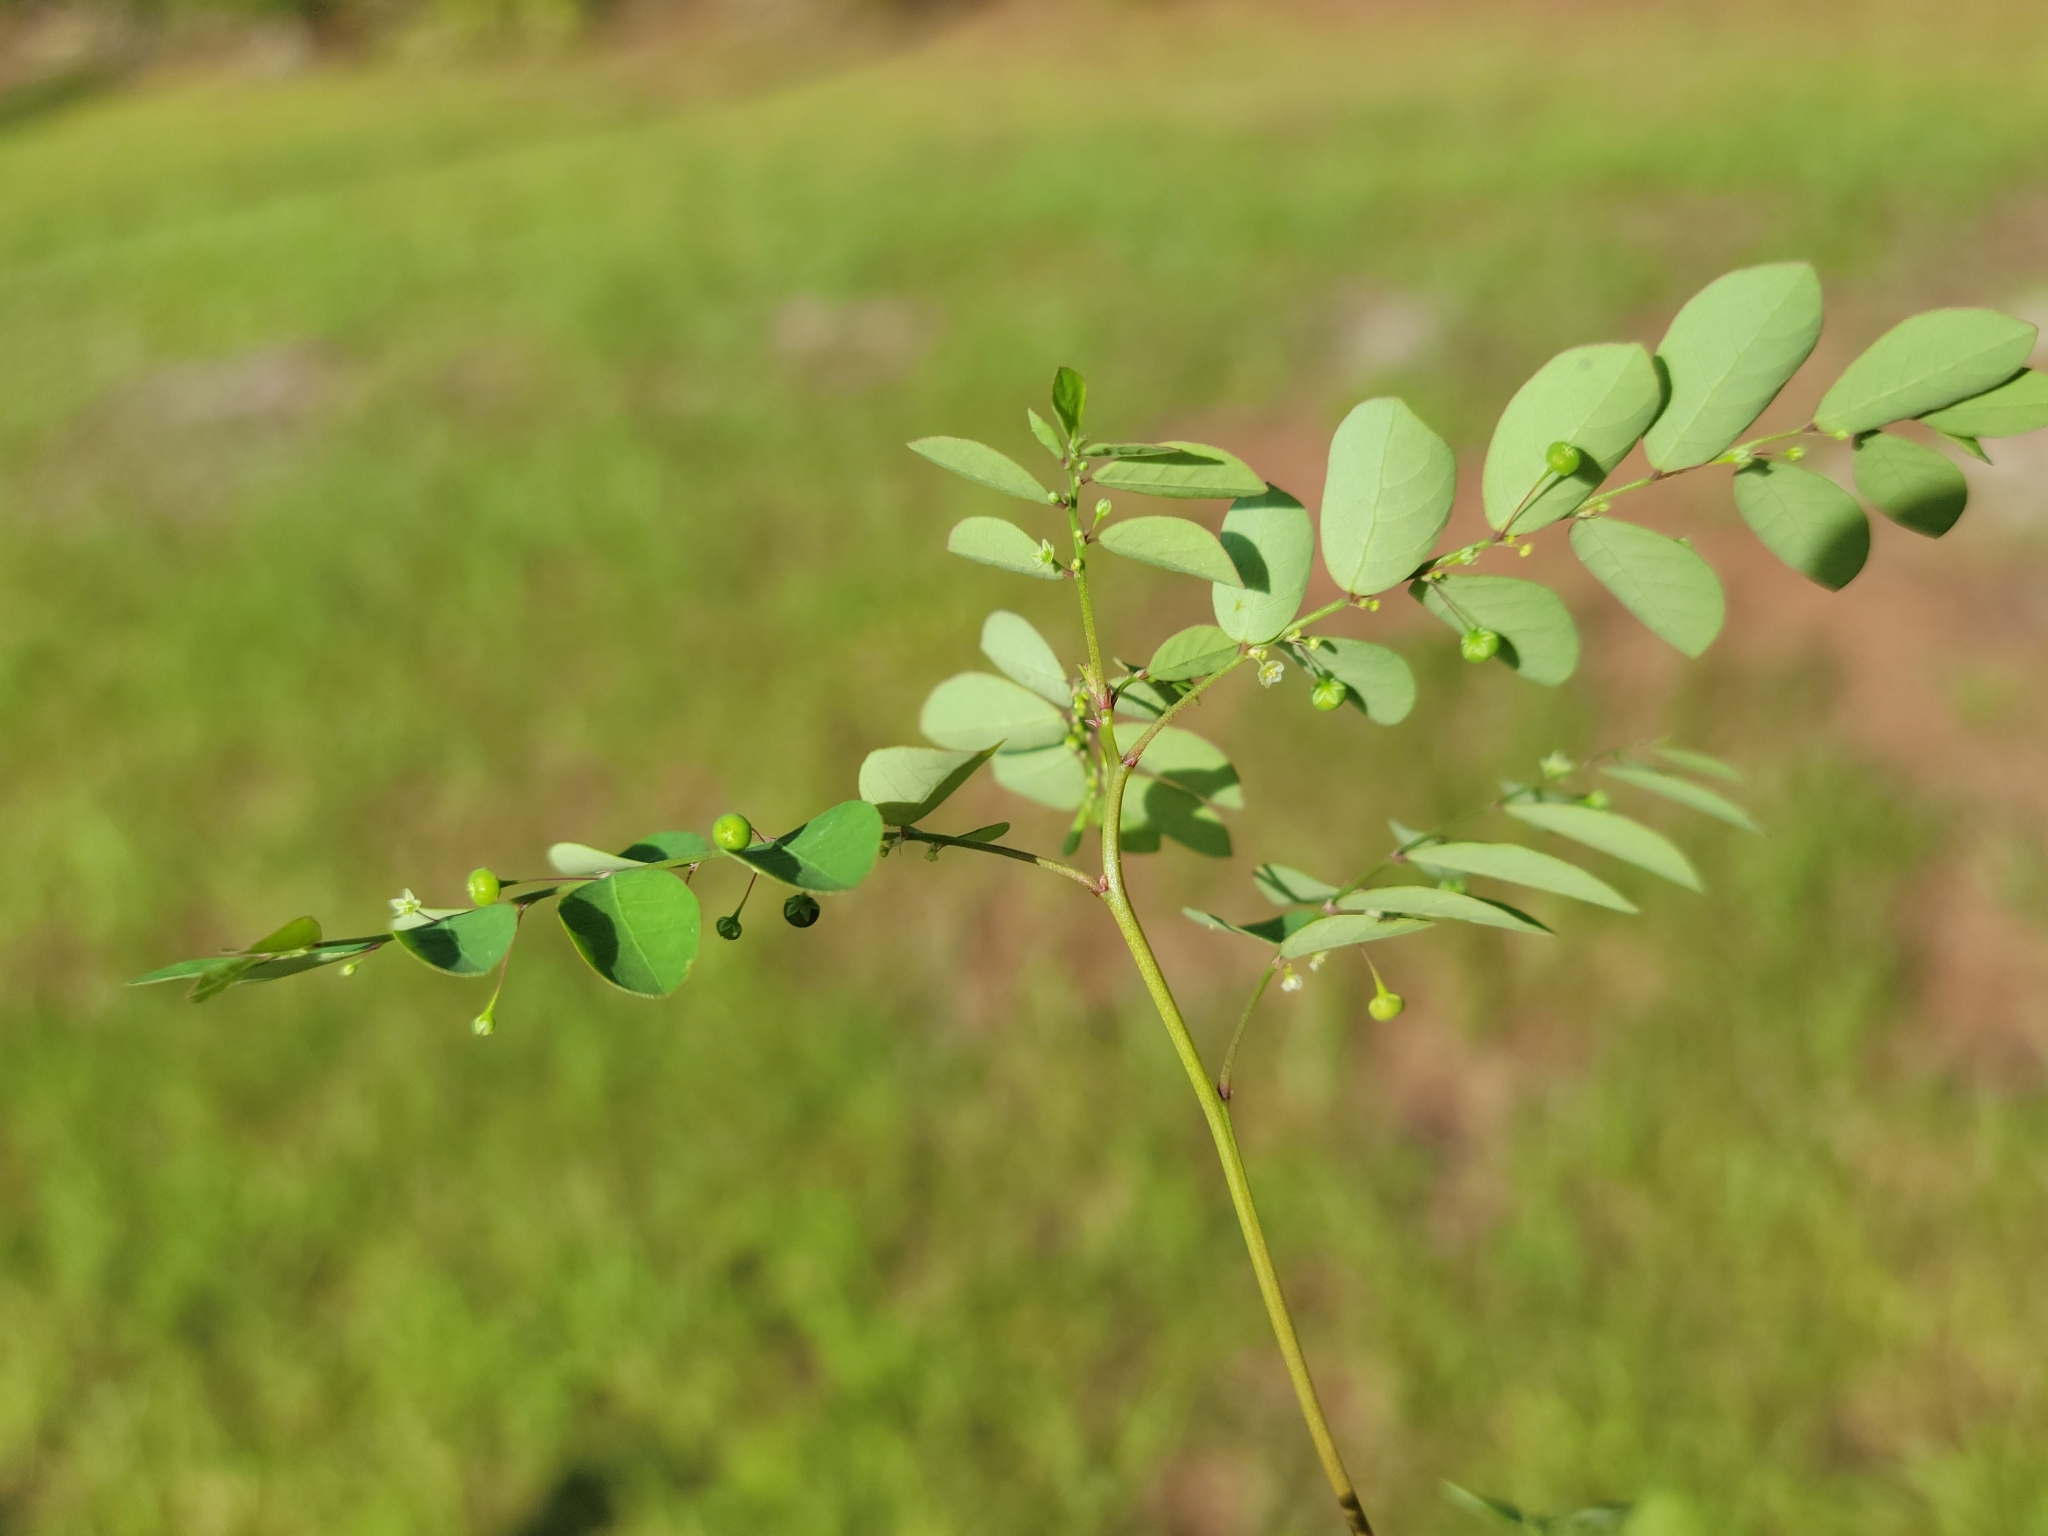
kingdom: Plantae
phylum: Tracheophyta
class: Magnoliopsida
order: Malpighiales
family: Phyllanthaceae
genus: Phyllanthus
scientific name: Phyllanthus tenellus
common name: Mascarene island leaf-flower
